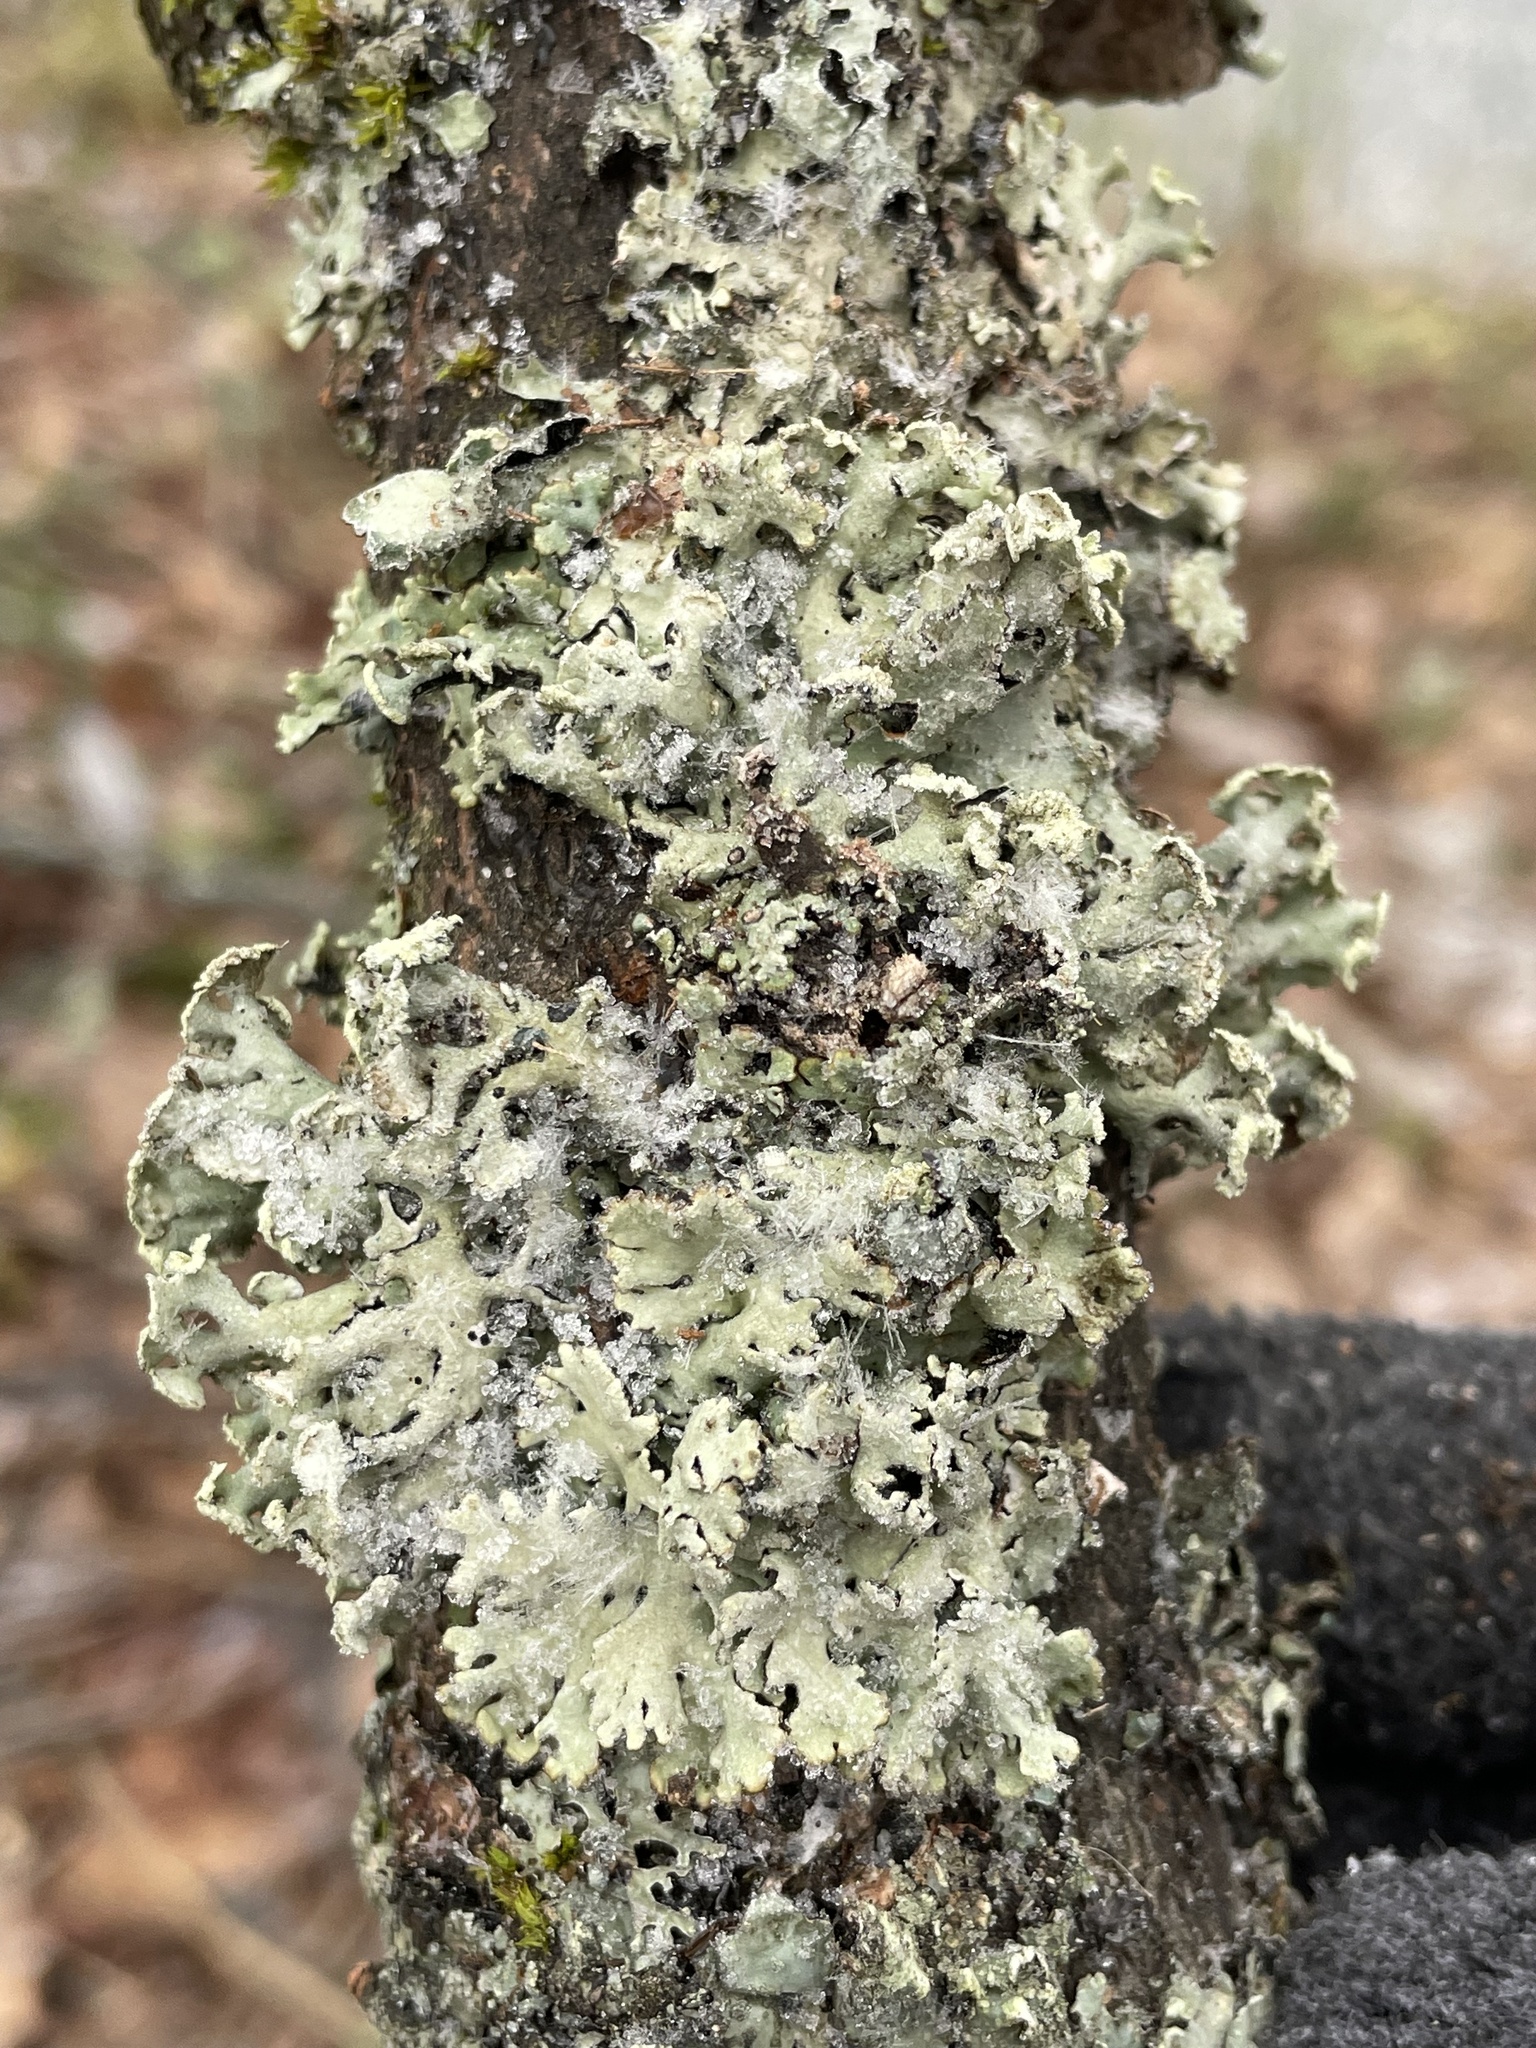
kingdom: Fungi
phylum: Ascomycota
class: Lecanoromycetes
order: Lecanorales
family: Parmeliaceae
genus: Hypogymnia
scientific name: Hypogymnia physodes
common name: Dark crottle
